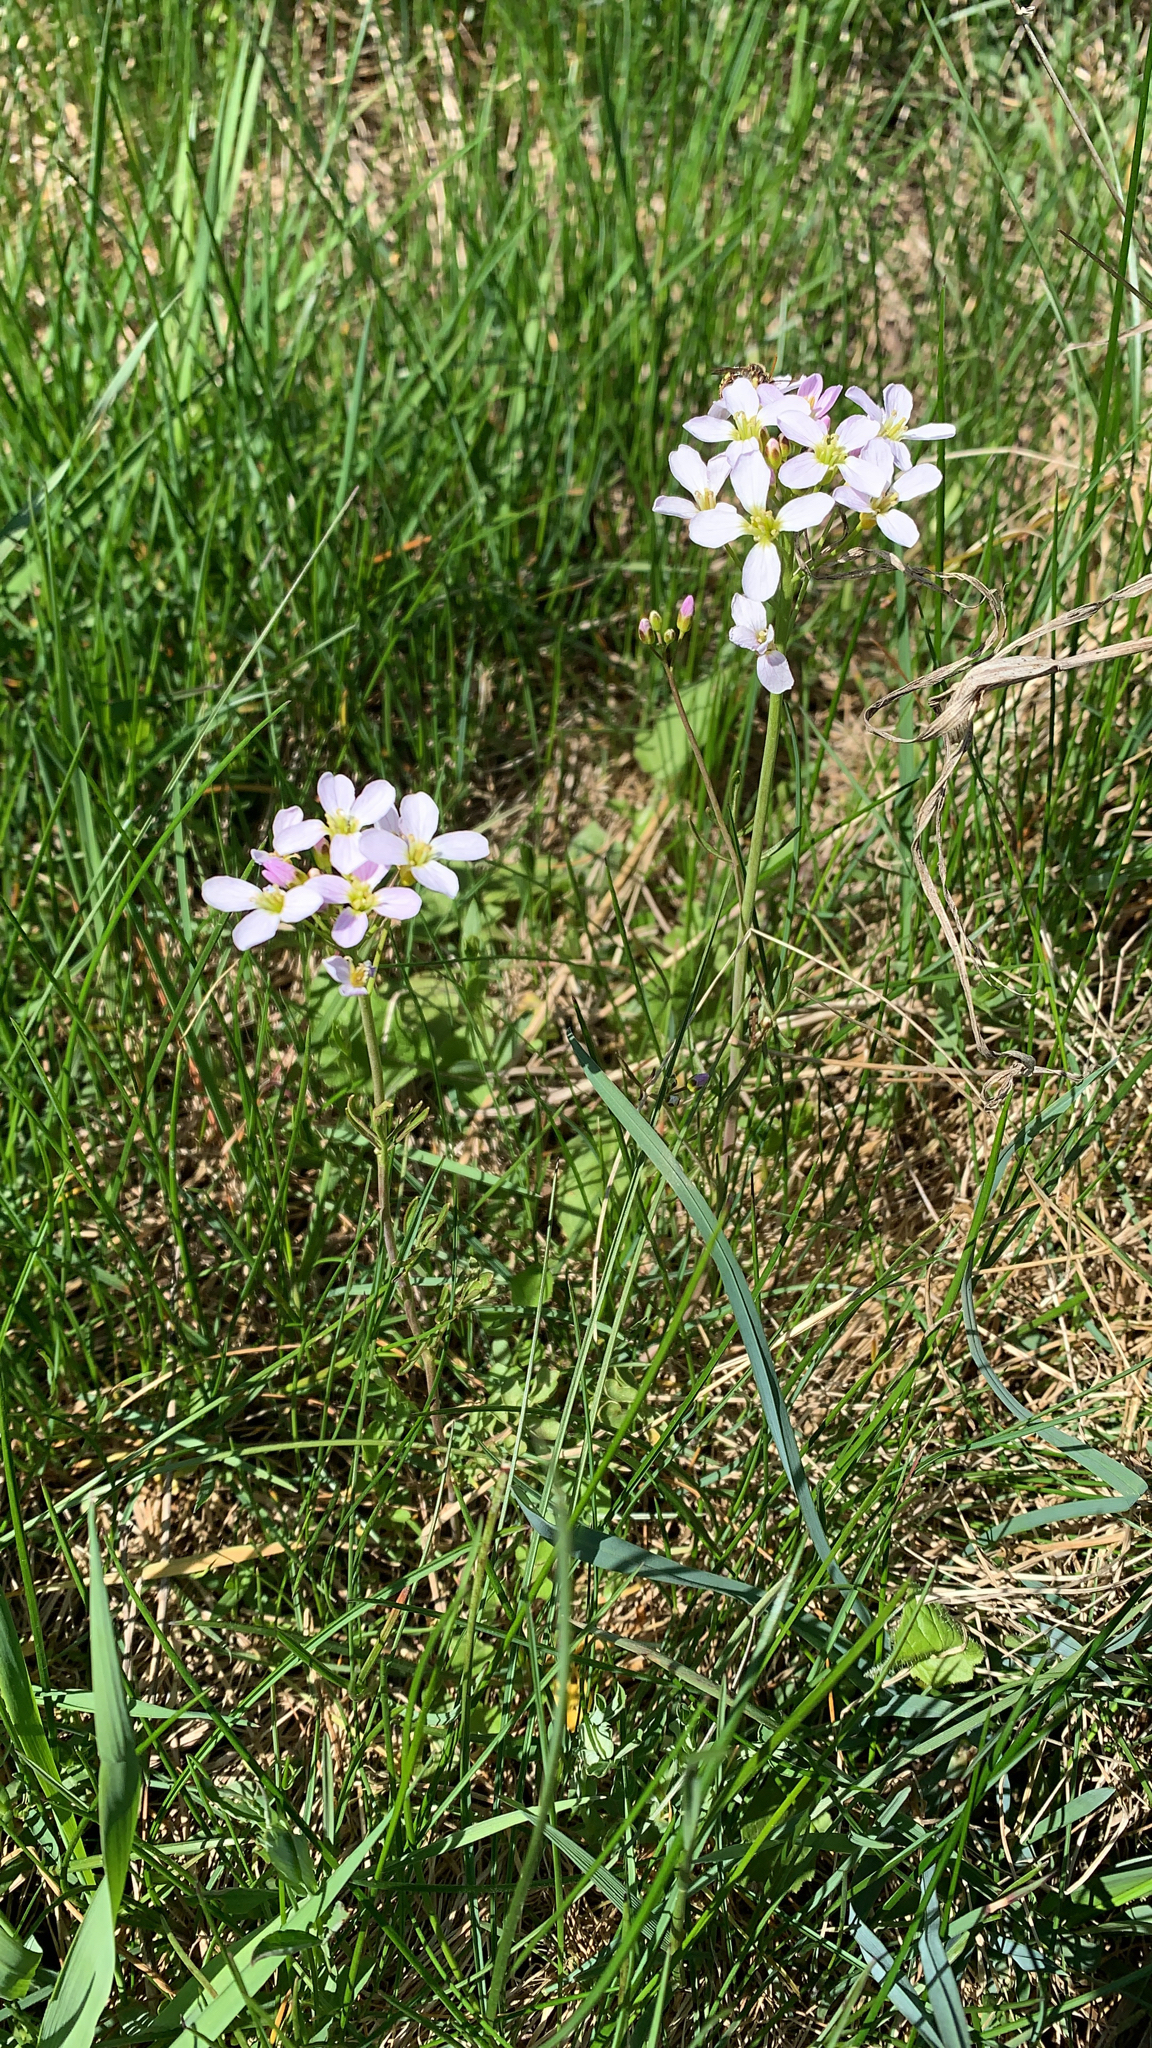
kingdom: Plantae
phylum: Tracheophyta
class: Magnoliopsida
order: Brassicales
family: Brassicaceae
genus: Cardamine
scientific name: Cardamine pratensis
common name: Cuckoo flower
